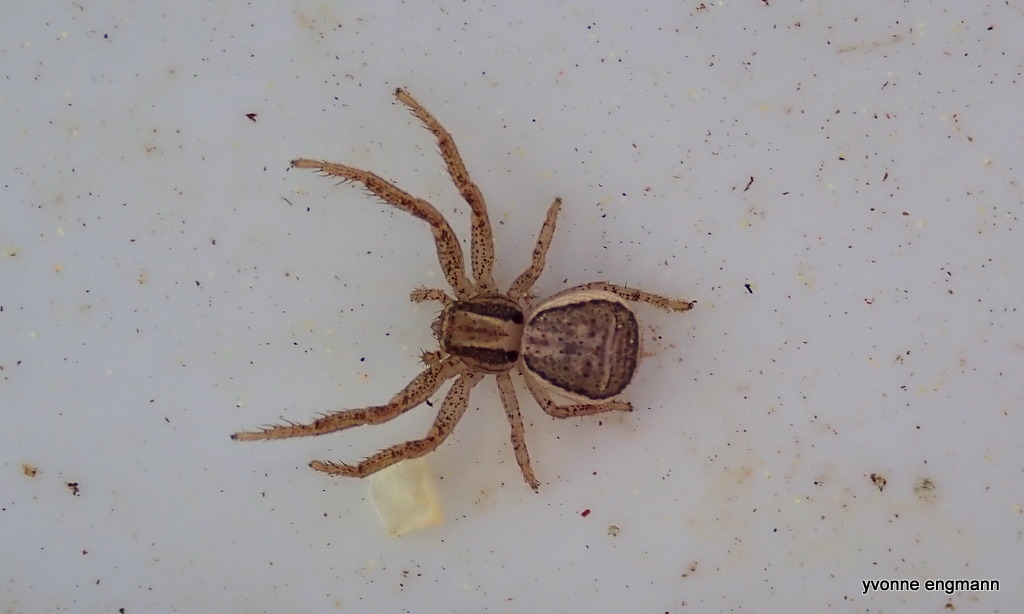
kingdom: Animalia
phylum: Arthropoda
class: Arachnida
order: Araneae
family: Thomisidae
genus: Xysticus
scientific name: Xysticus ulmi
